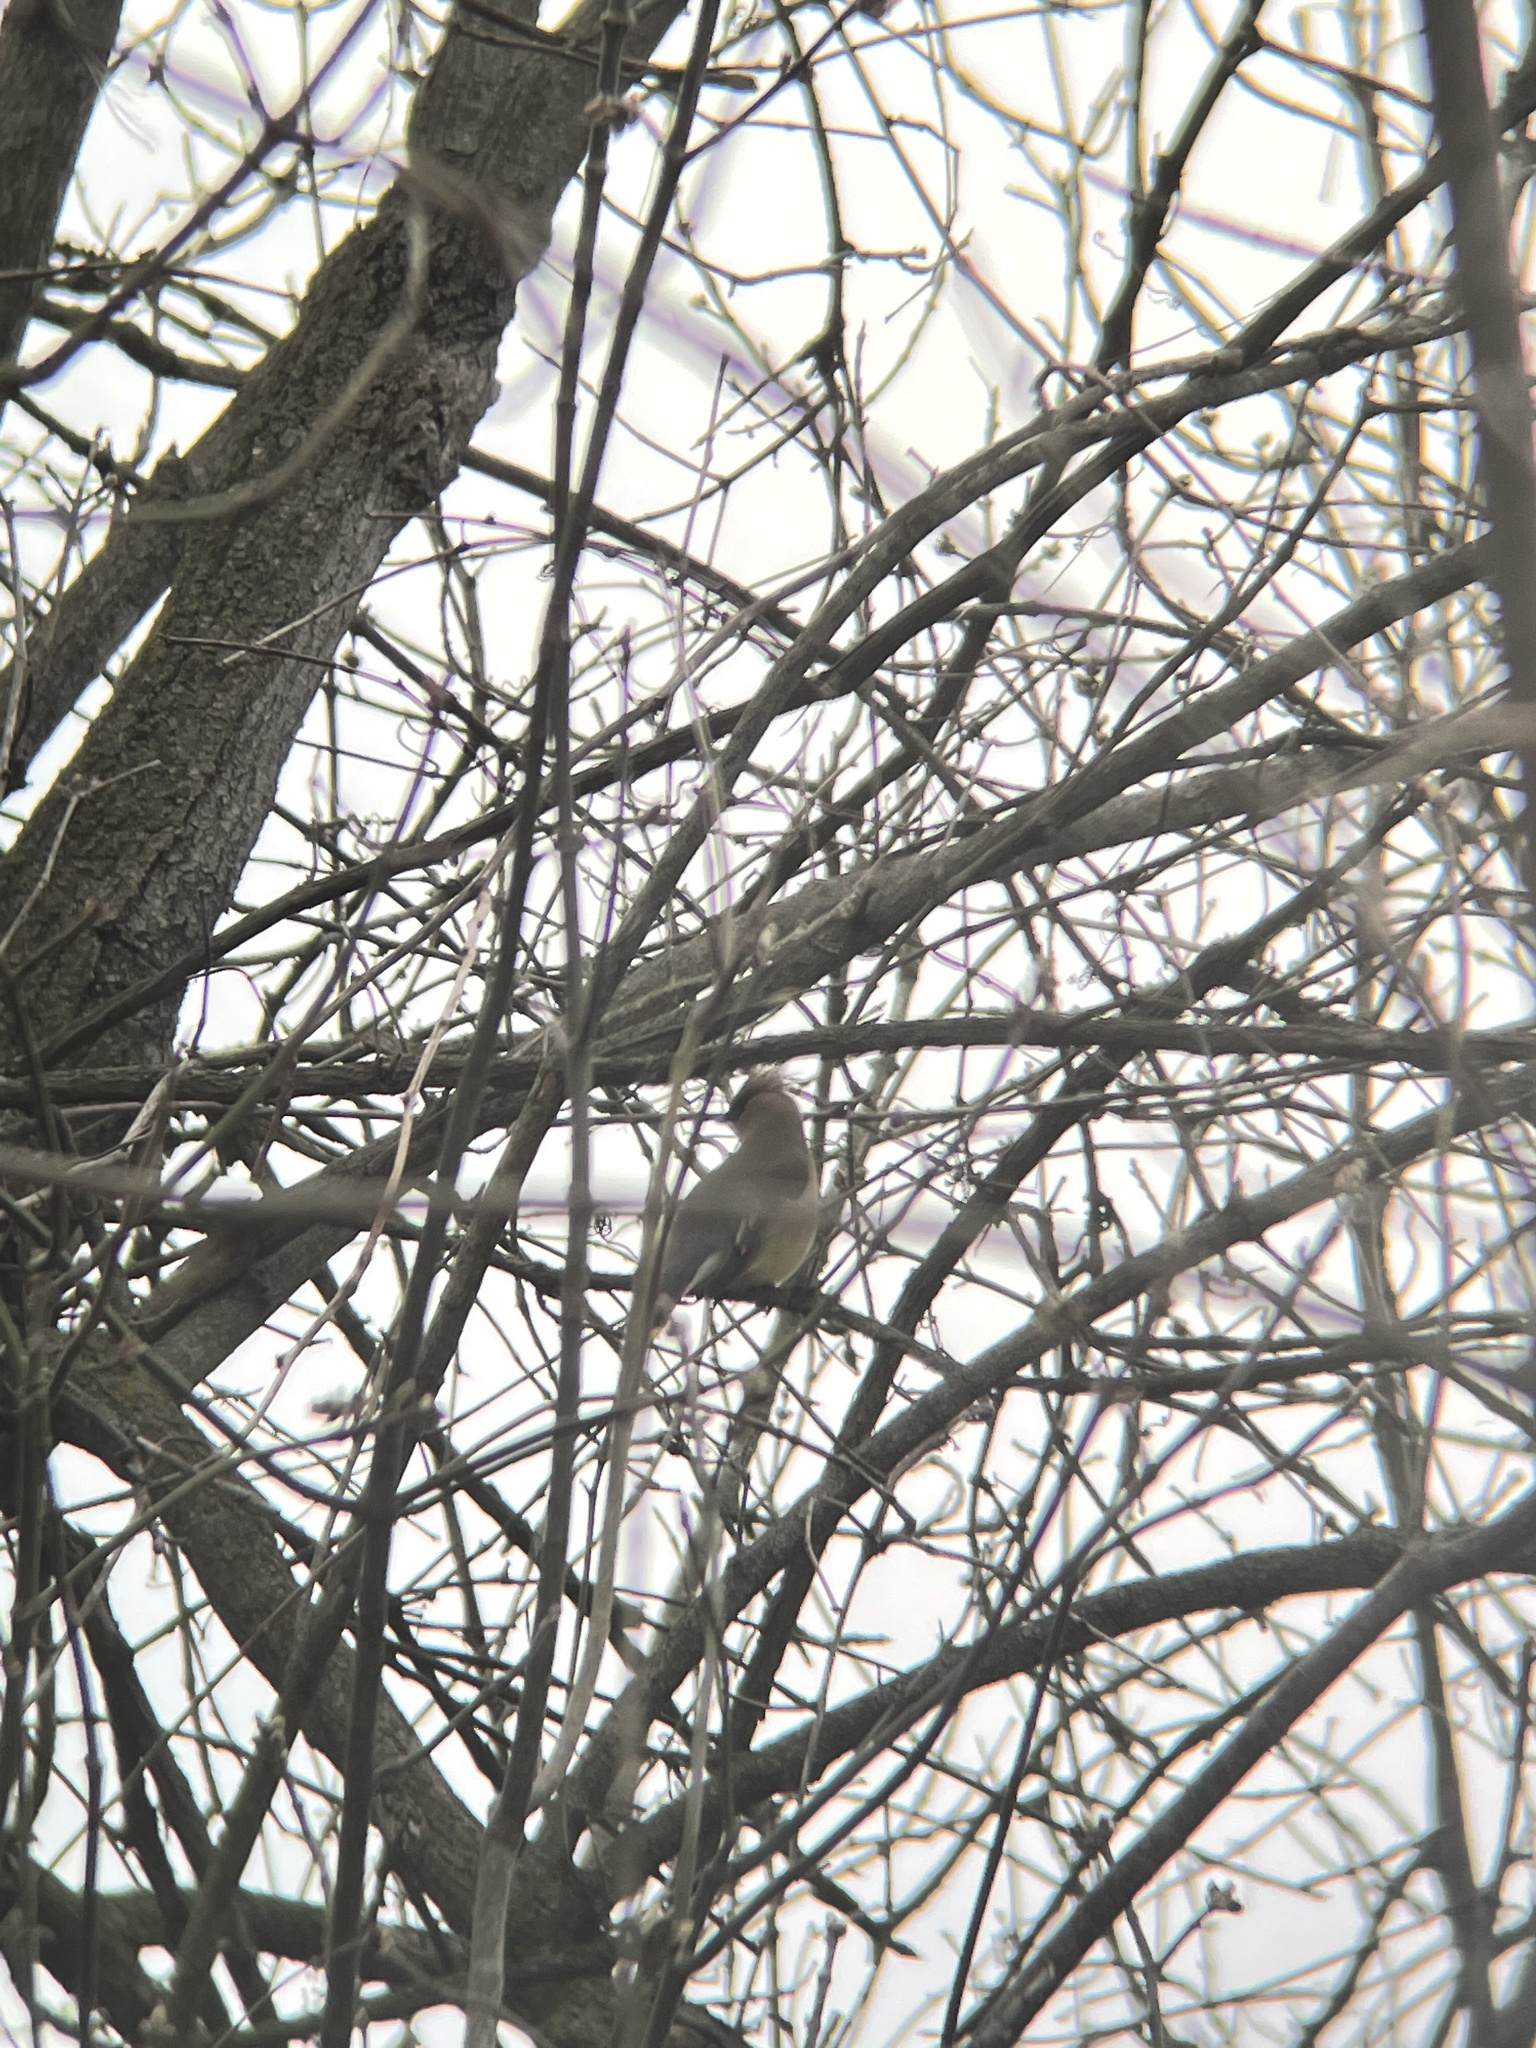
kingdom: Animalia
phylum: Chordata
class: Aves
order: Passeriformes
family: Bombycillidae
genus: Bombycilla
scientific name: Bombycilla cedrorum
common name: Cedar waxwing
